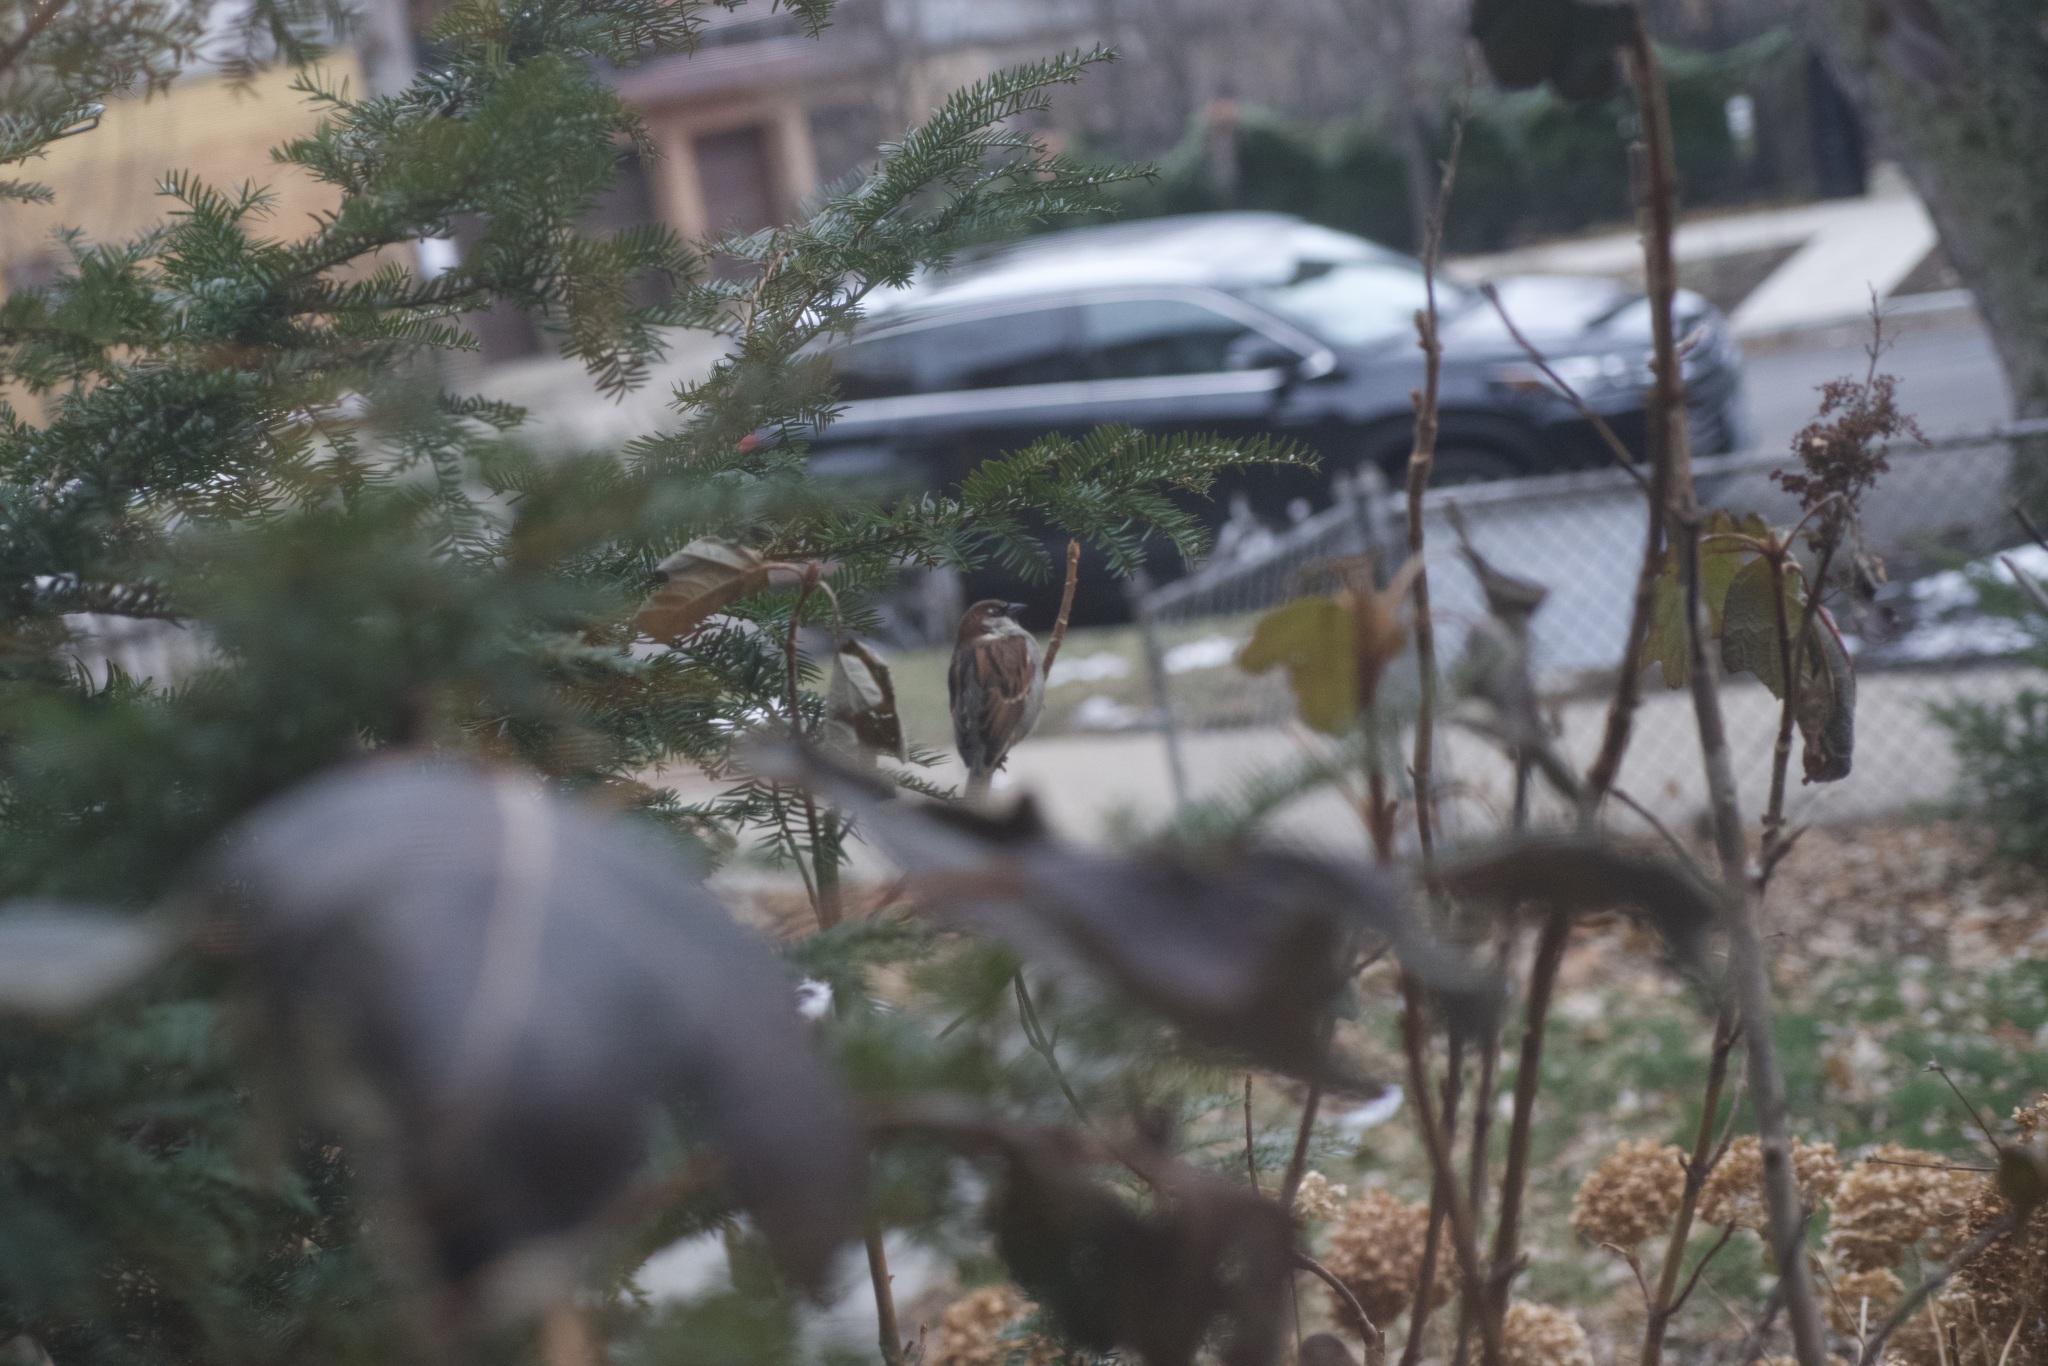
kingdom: Animalia
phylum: Chordata
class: Aves
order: Passeriformes
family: Passeridae
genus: Passer
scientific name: Passer domesticus
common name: House sparrow
